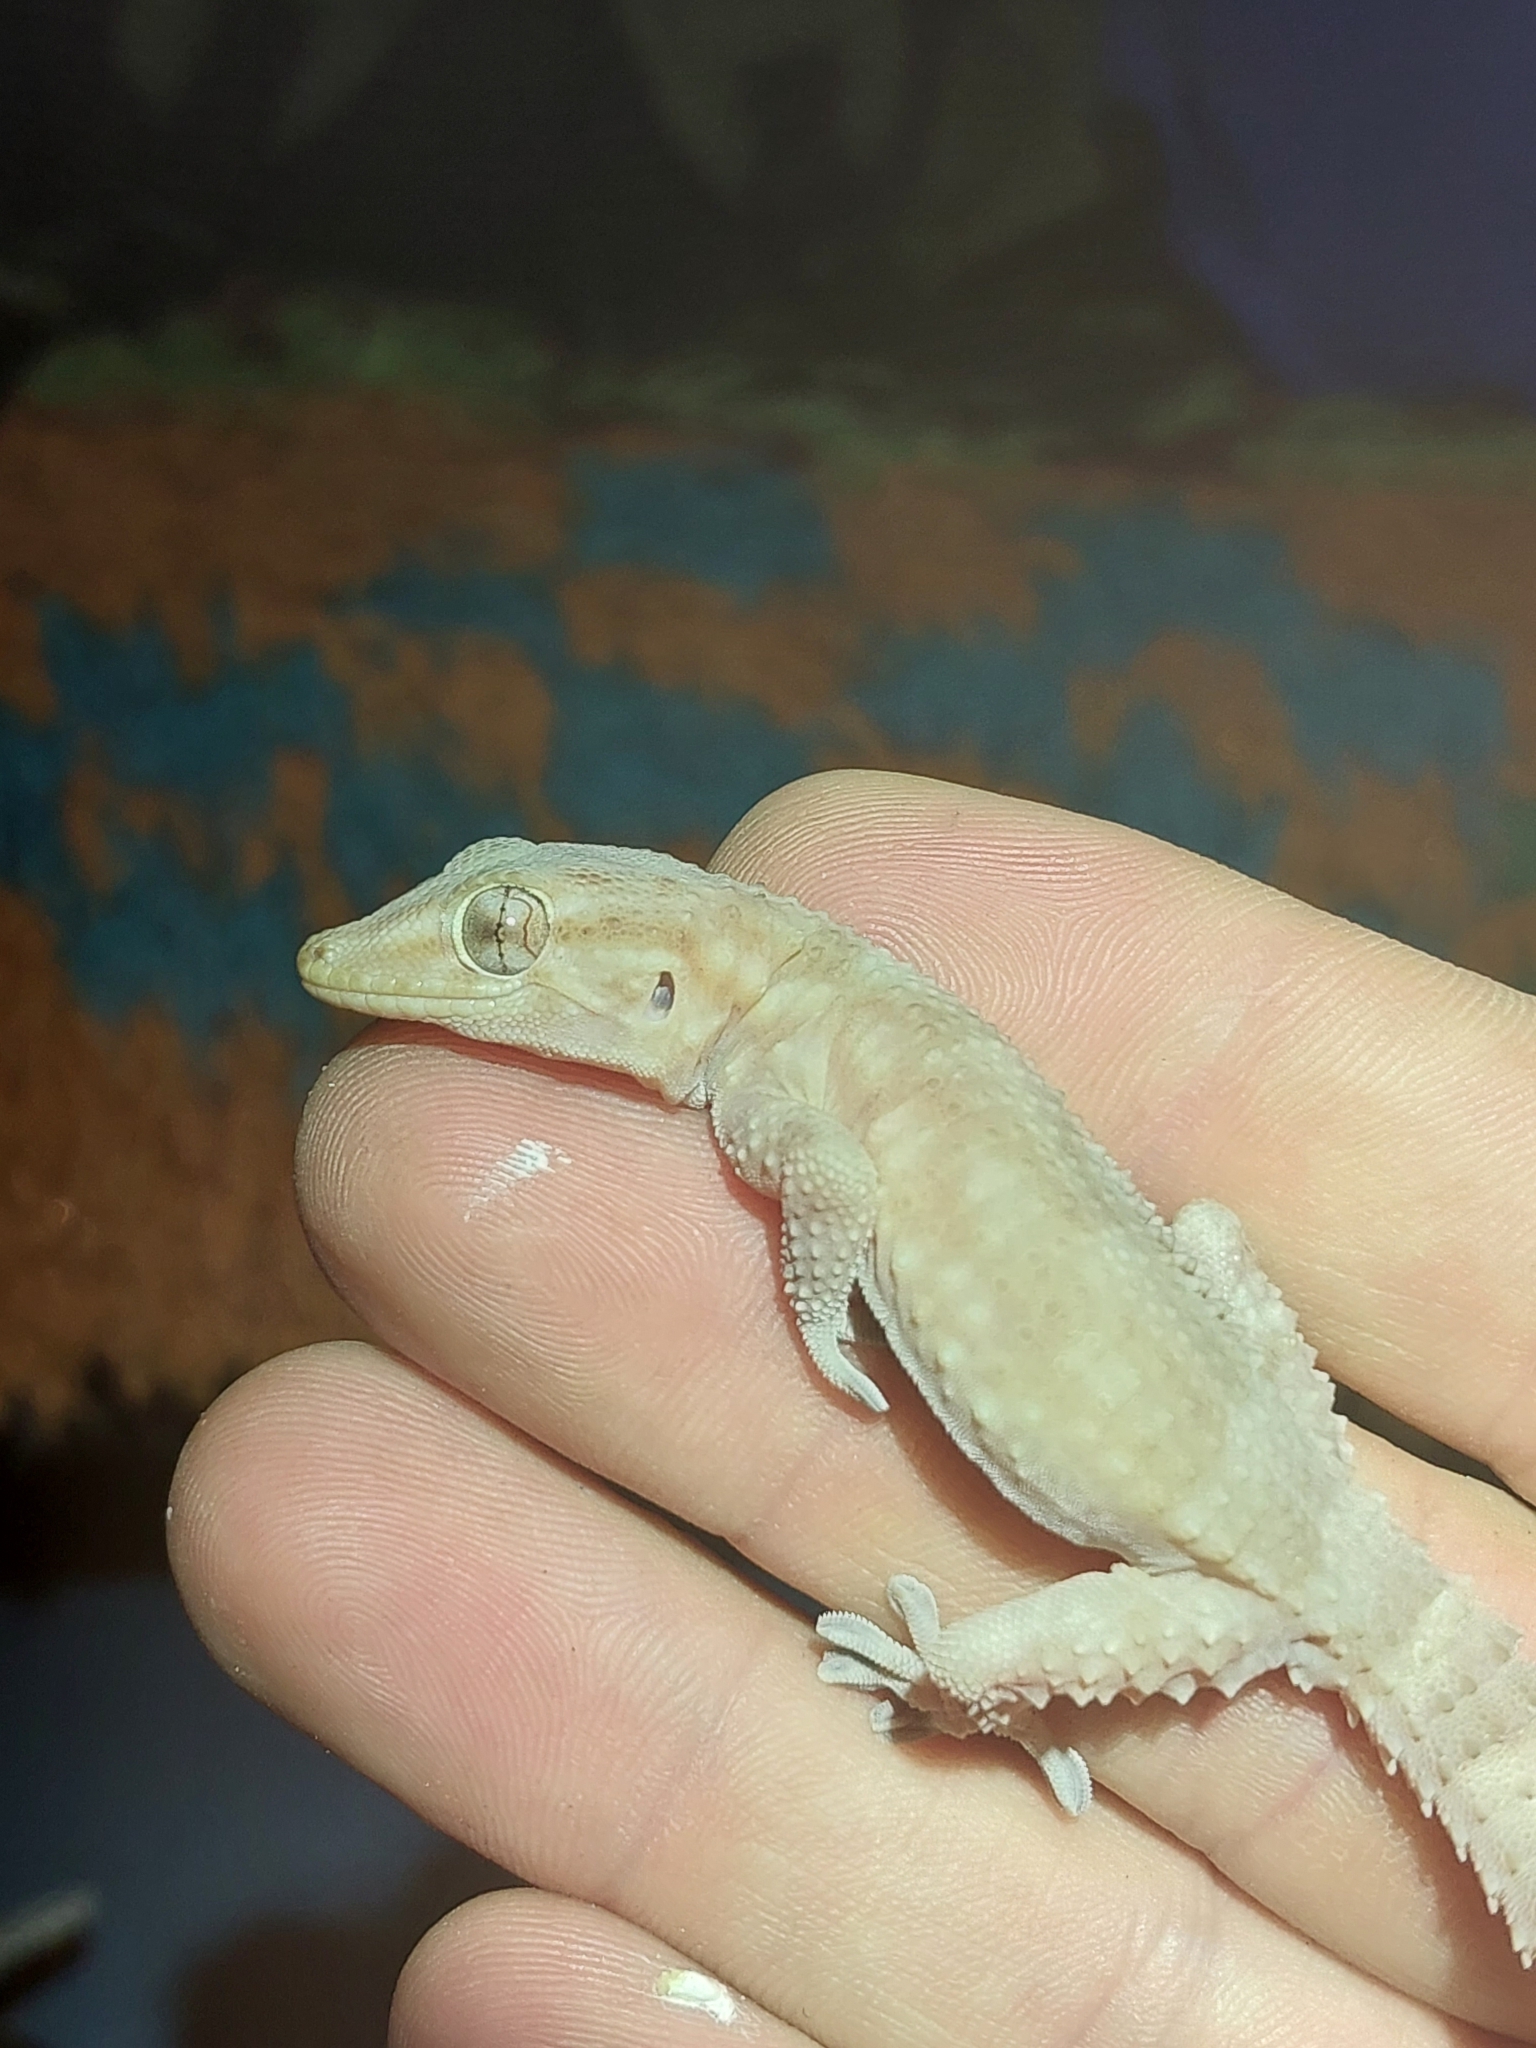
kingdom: Animalia
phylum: Chordata
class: Squamata
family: Phyllodactylidae
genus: Tarentola
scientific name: Tarentola boehmei
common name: Böhme's gecko
